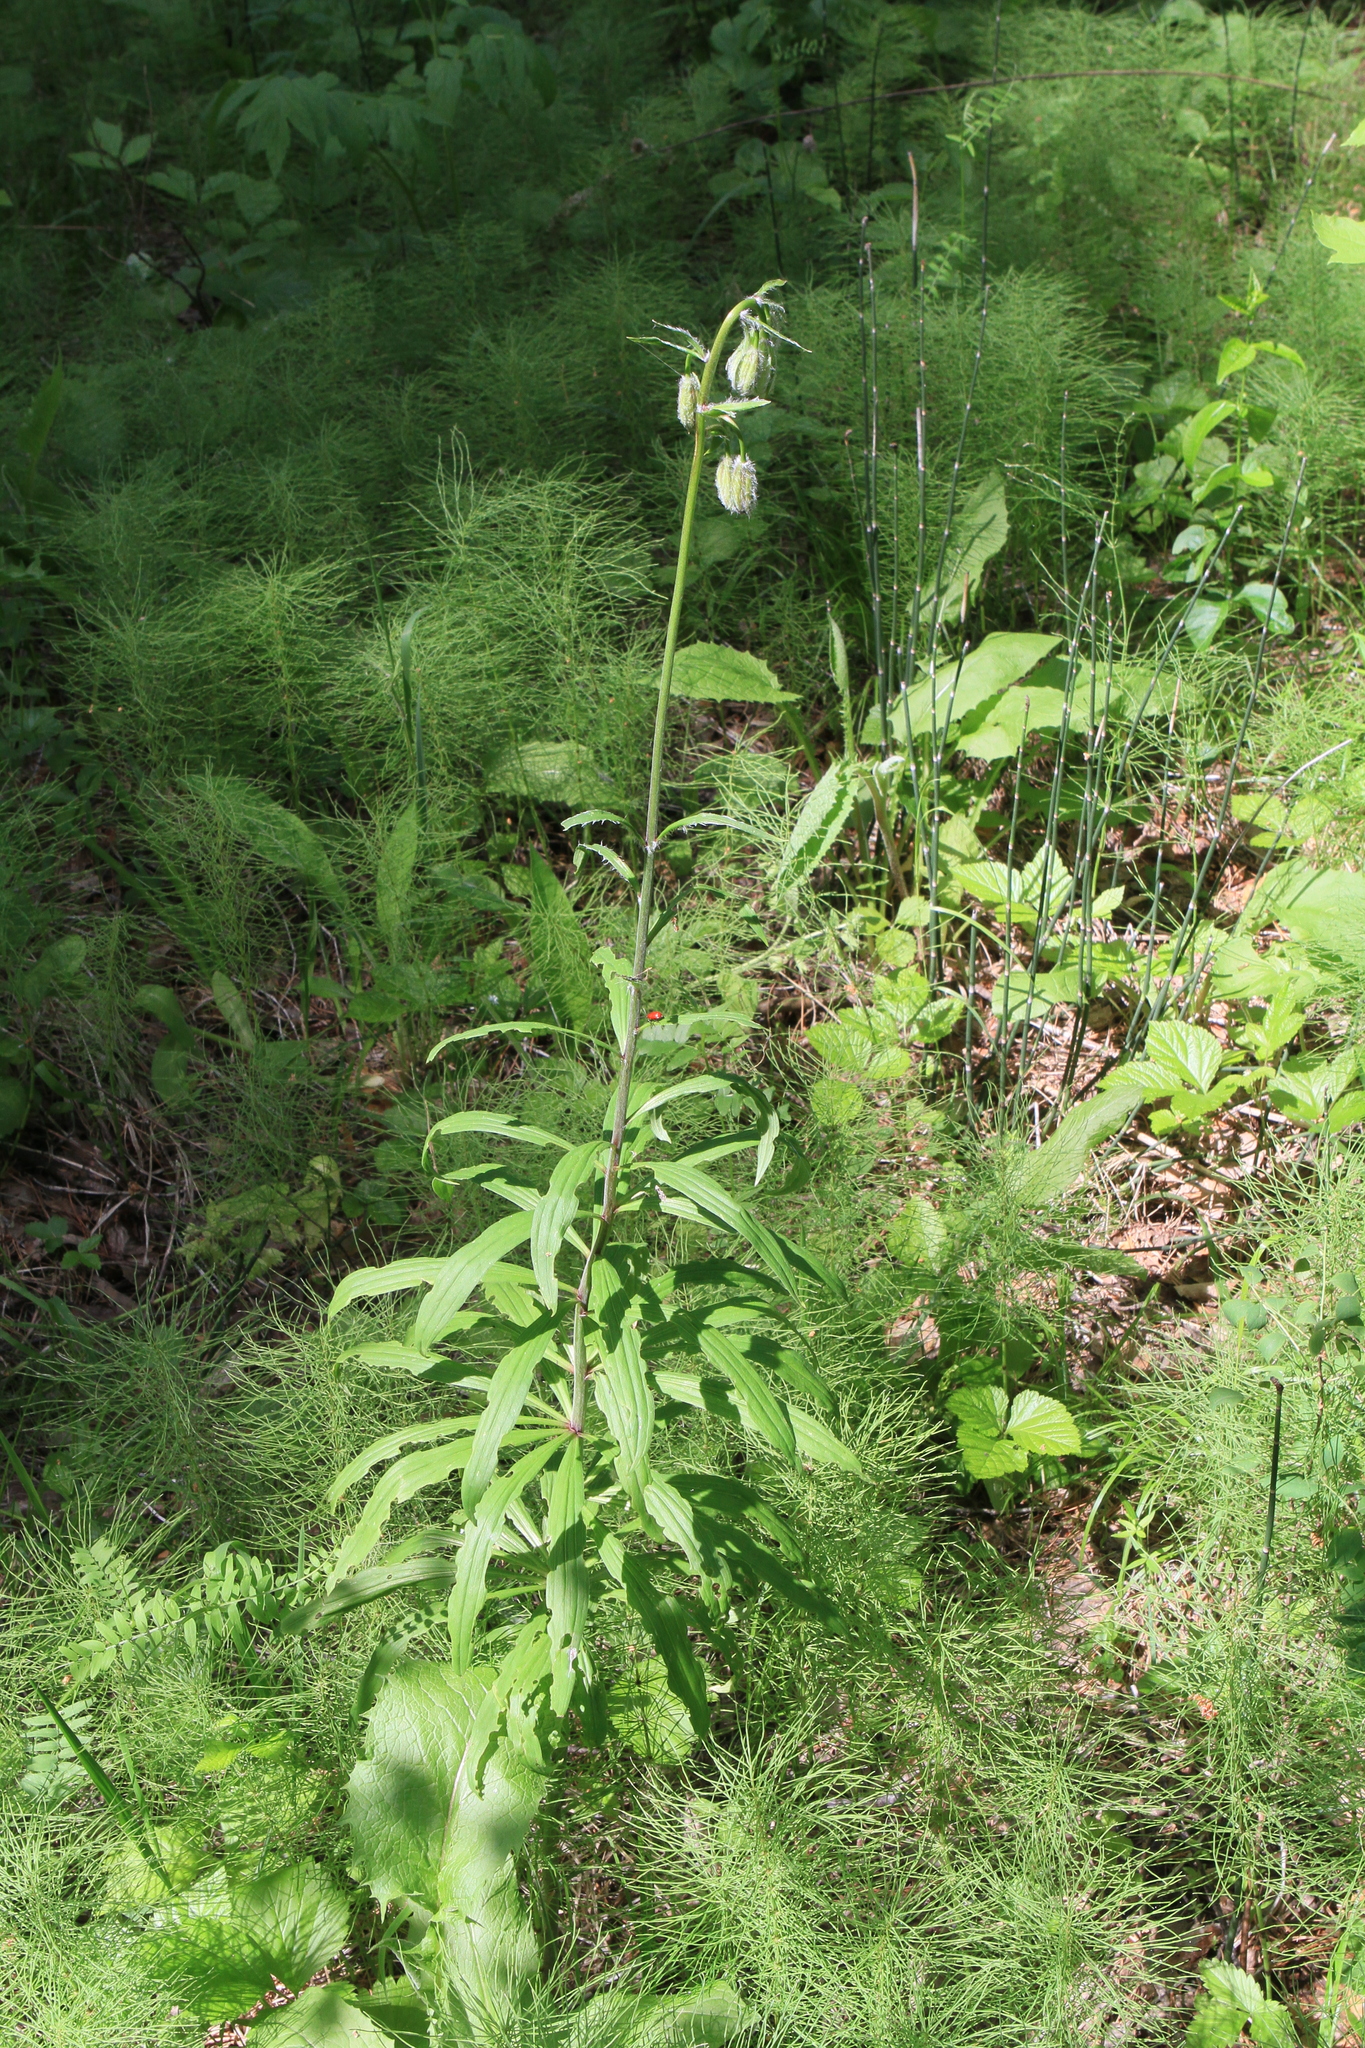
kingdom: Plantae
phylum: Tracheophyta
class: Liliopsida
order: Liliales
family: Liliaceae
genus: Lilium
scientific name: Lilium martagon
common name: Martagon lily
